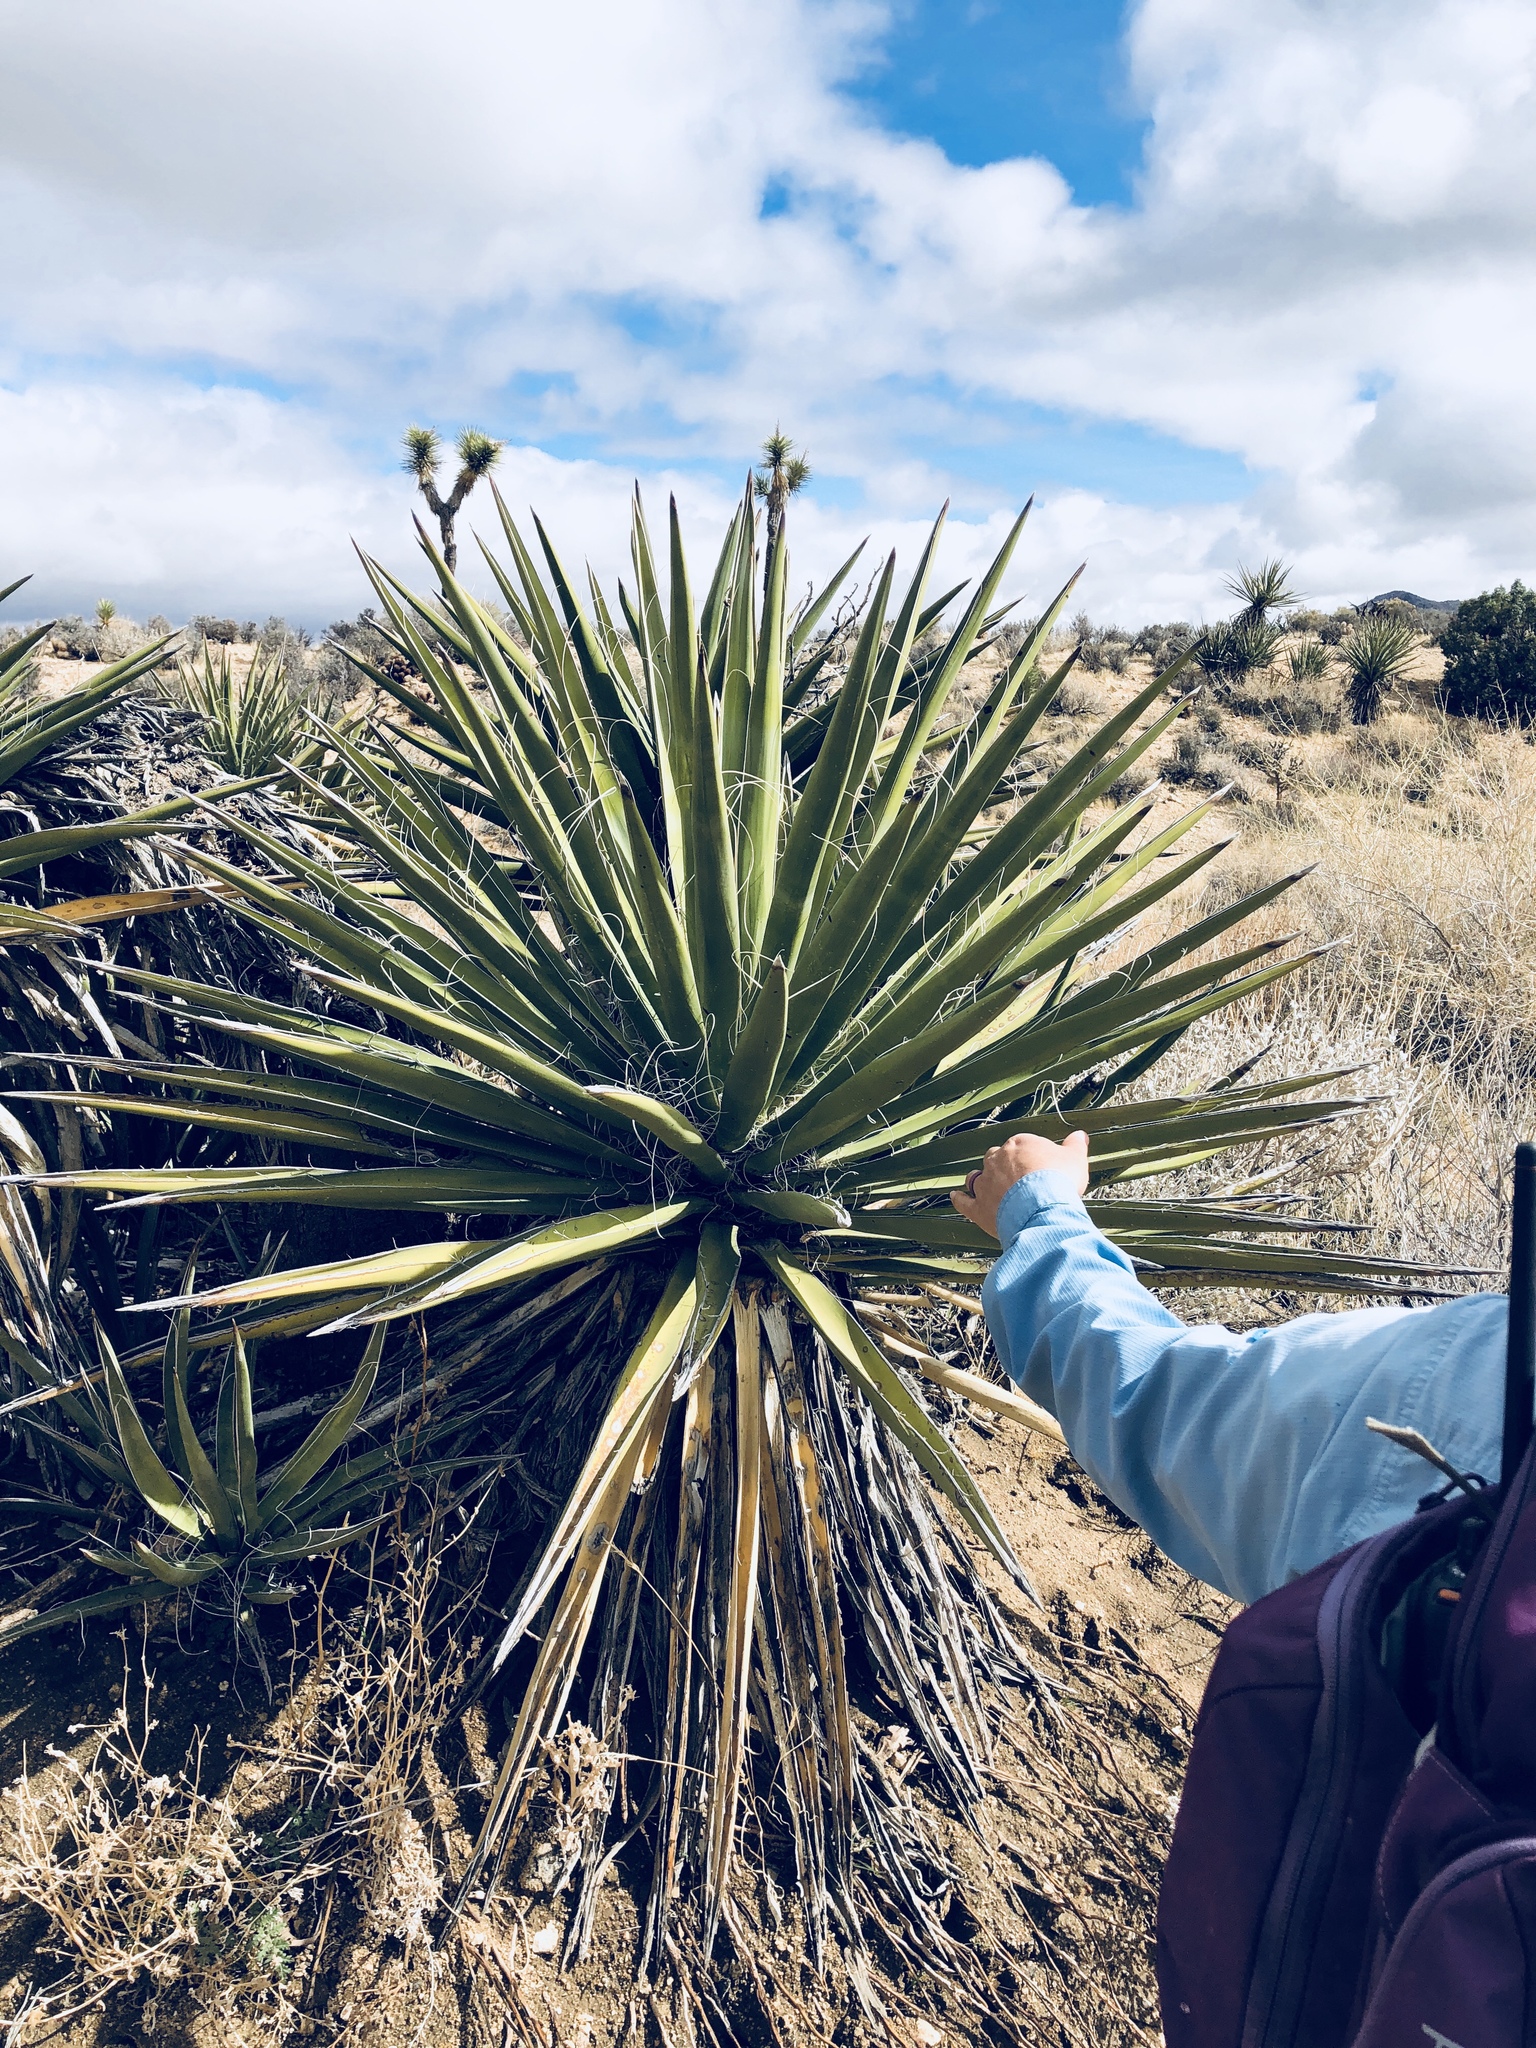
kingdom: Plantae
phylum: Tracheophyta
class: Liliopsida
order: Asparagales
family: Asparagaceae
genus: Yucca
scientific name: Yucca schidigera
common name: Mojave yucca
